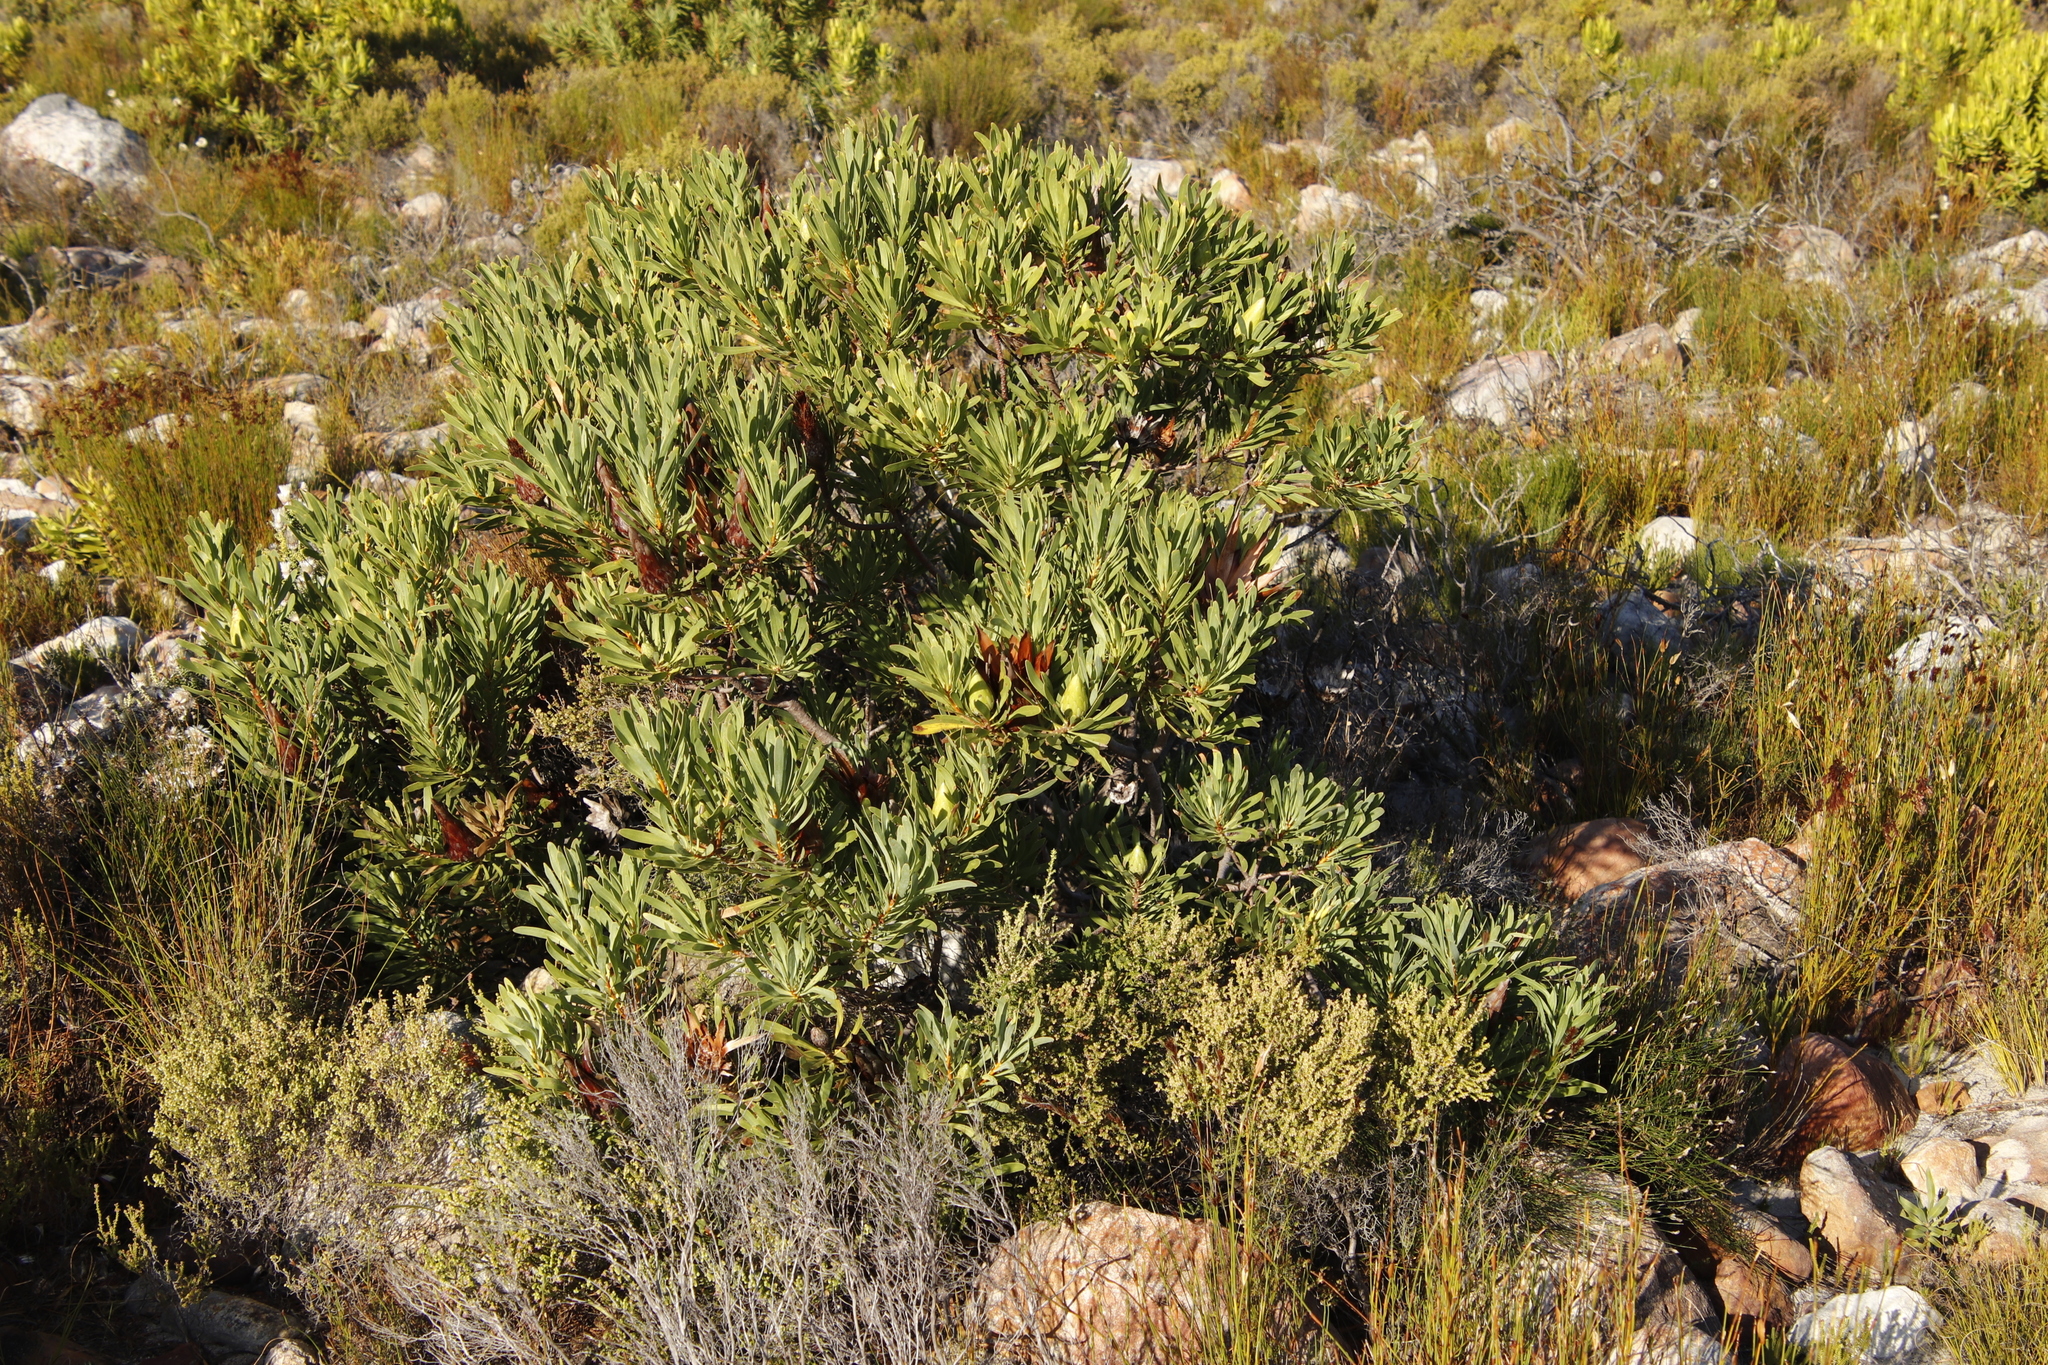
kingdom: Plantae
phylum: Tracheophyta
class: Magnoliopsida
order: Proteales
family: Proteaceae
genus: Protea
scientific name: Protea repens
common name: Sugarbush
